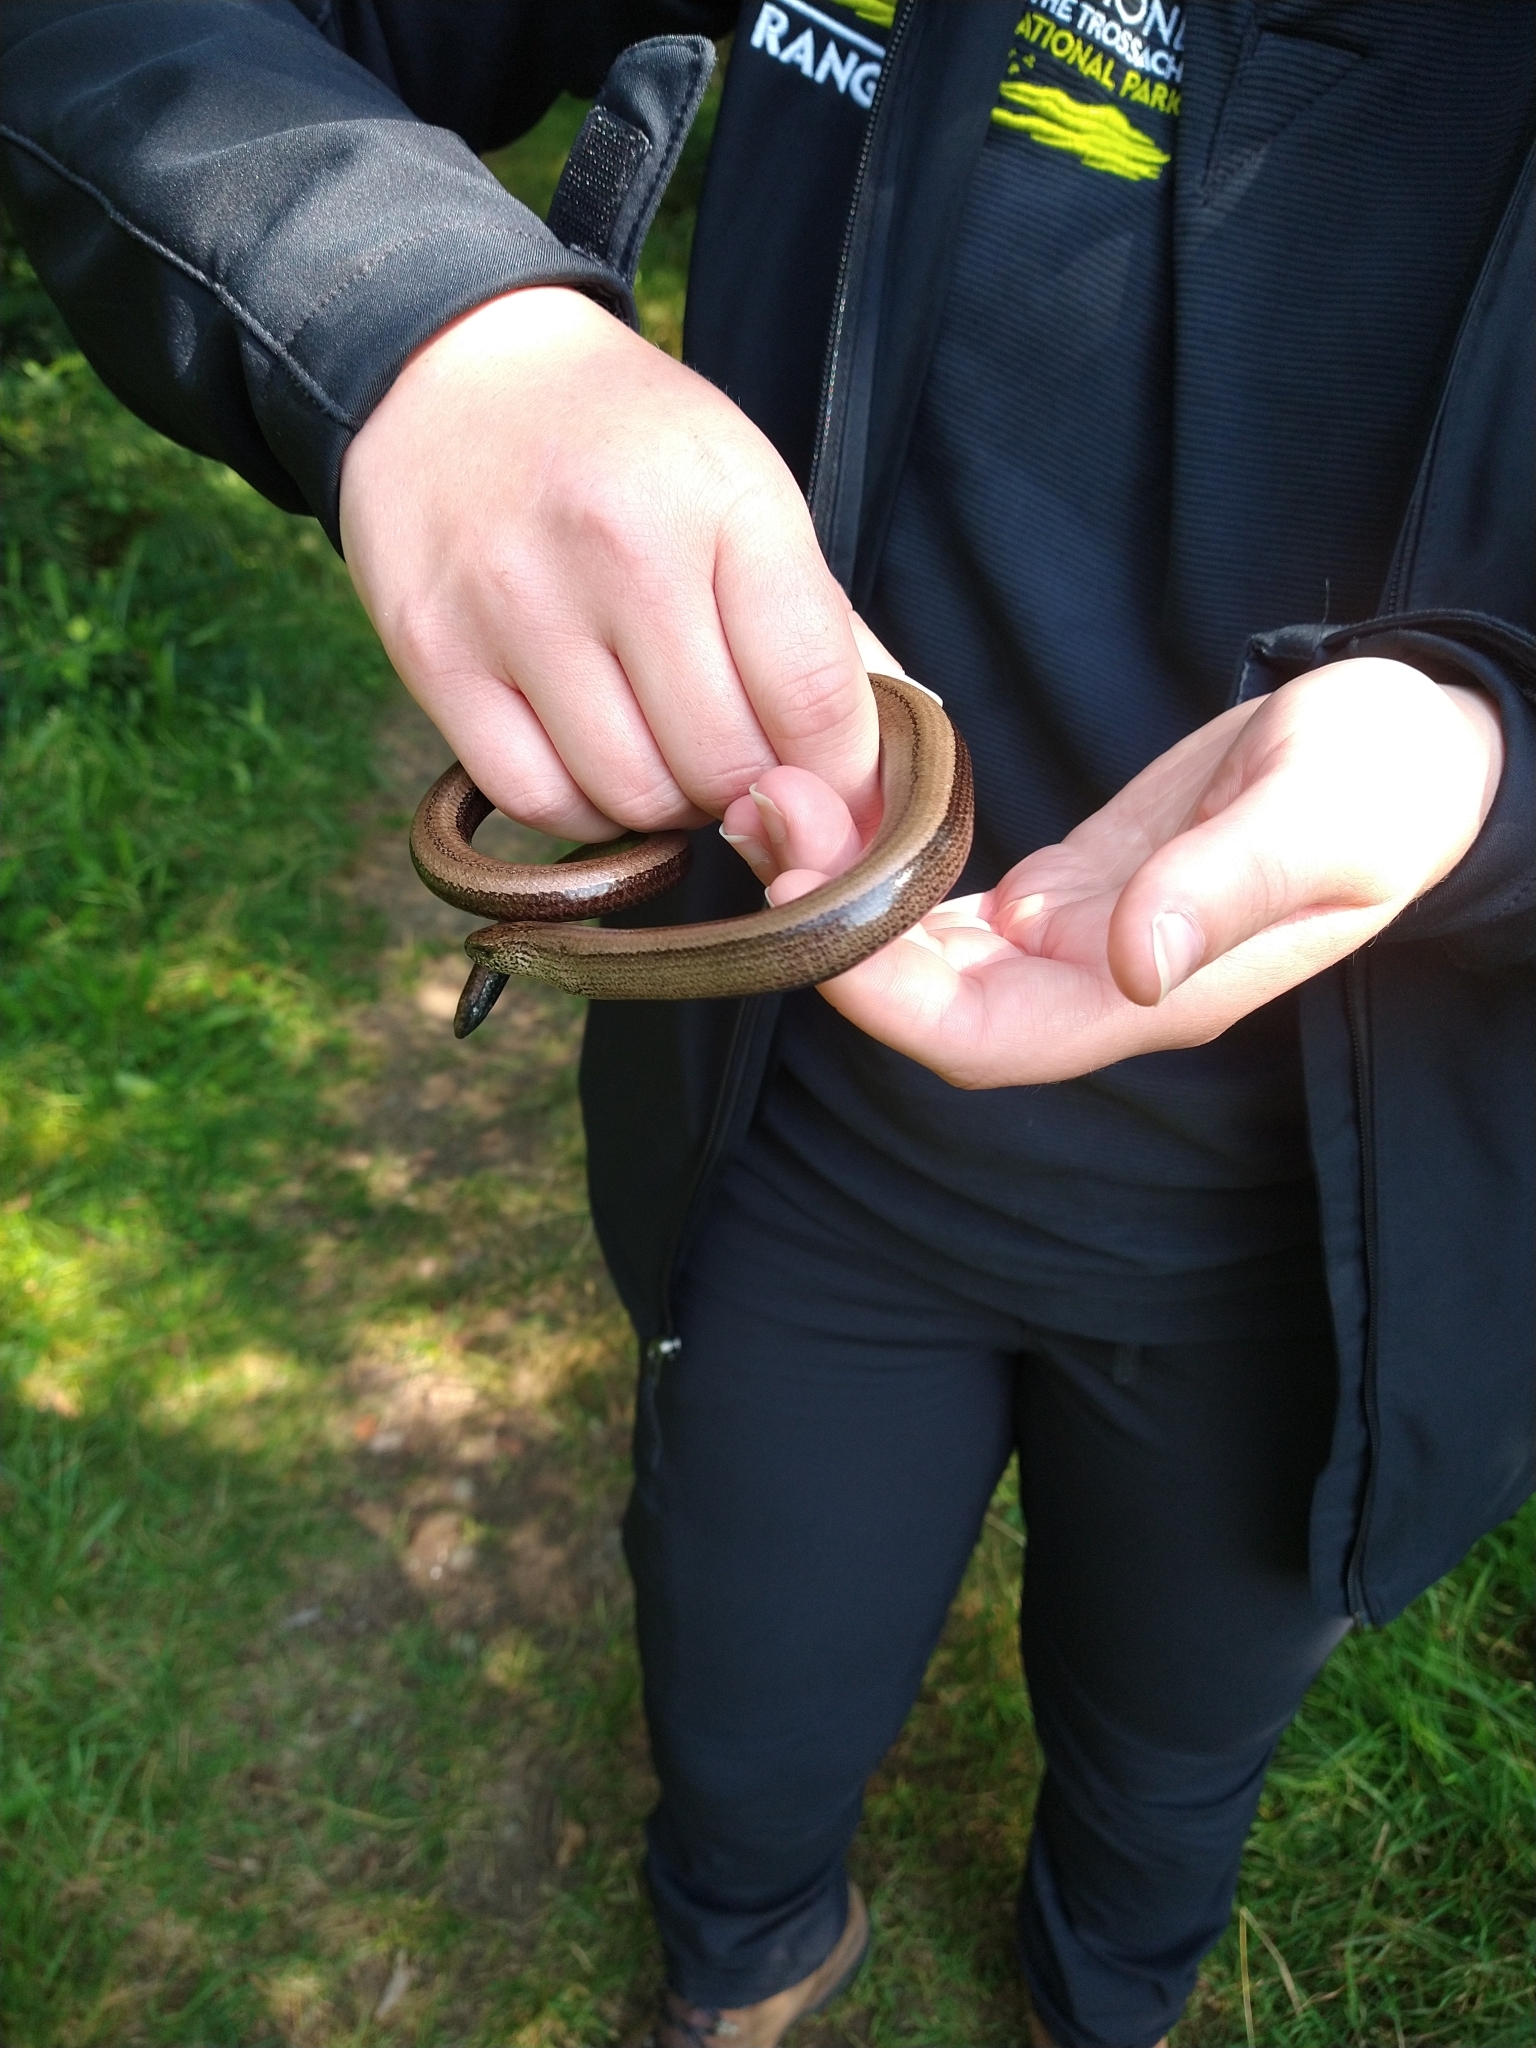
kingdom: Animalia
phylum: Chordata
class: Squamata
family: Anguidae
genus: Anguis
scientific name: Anguis fragilis
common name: Slow worm
